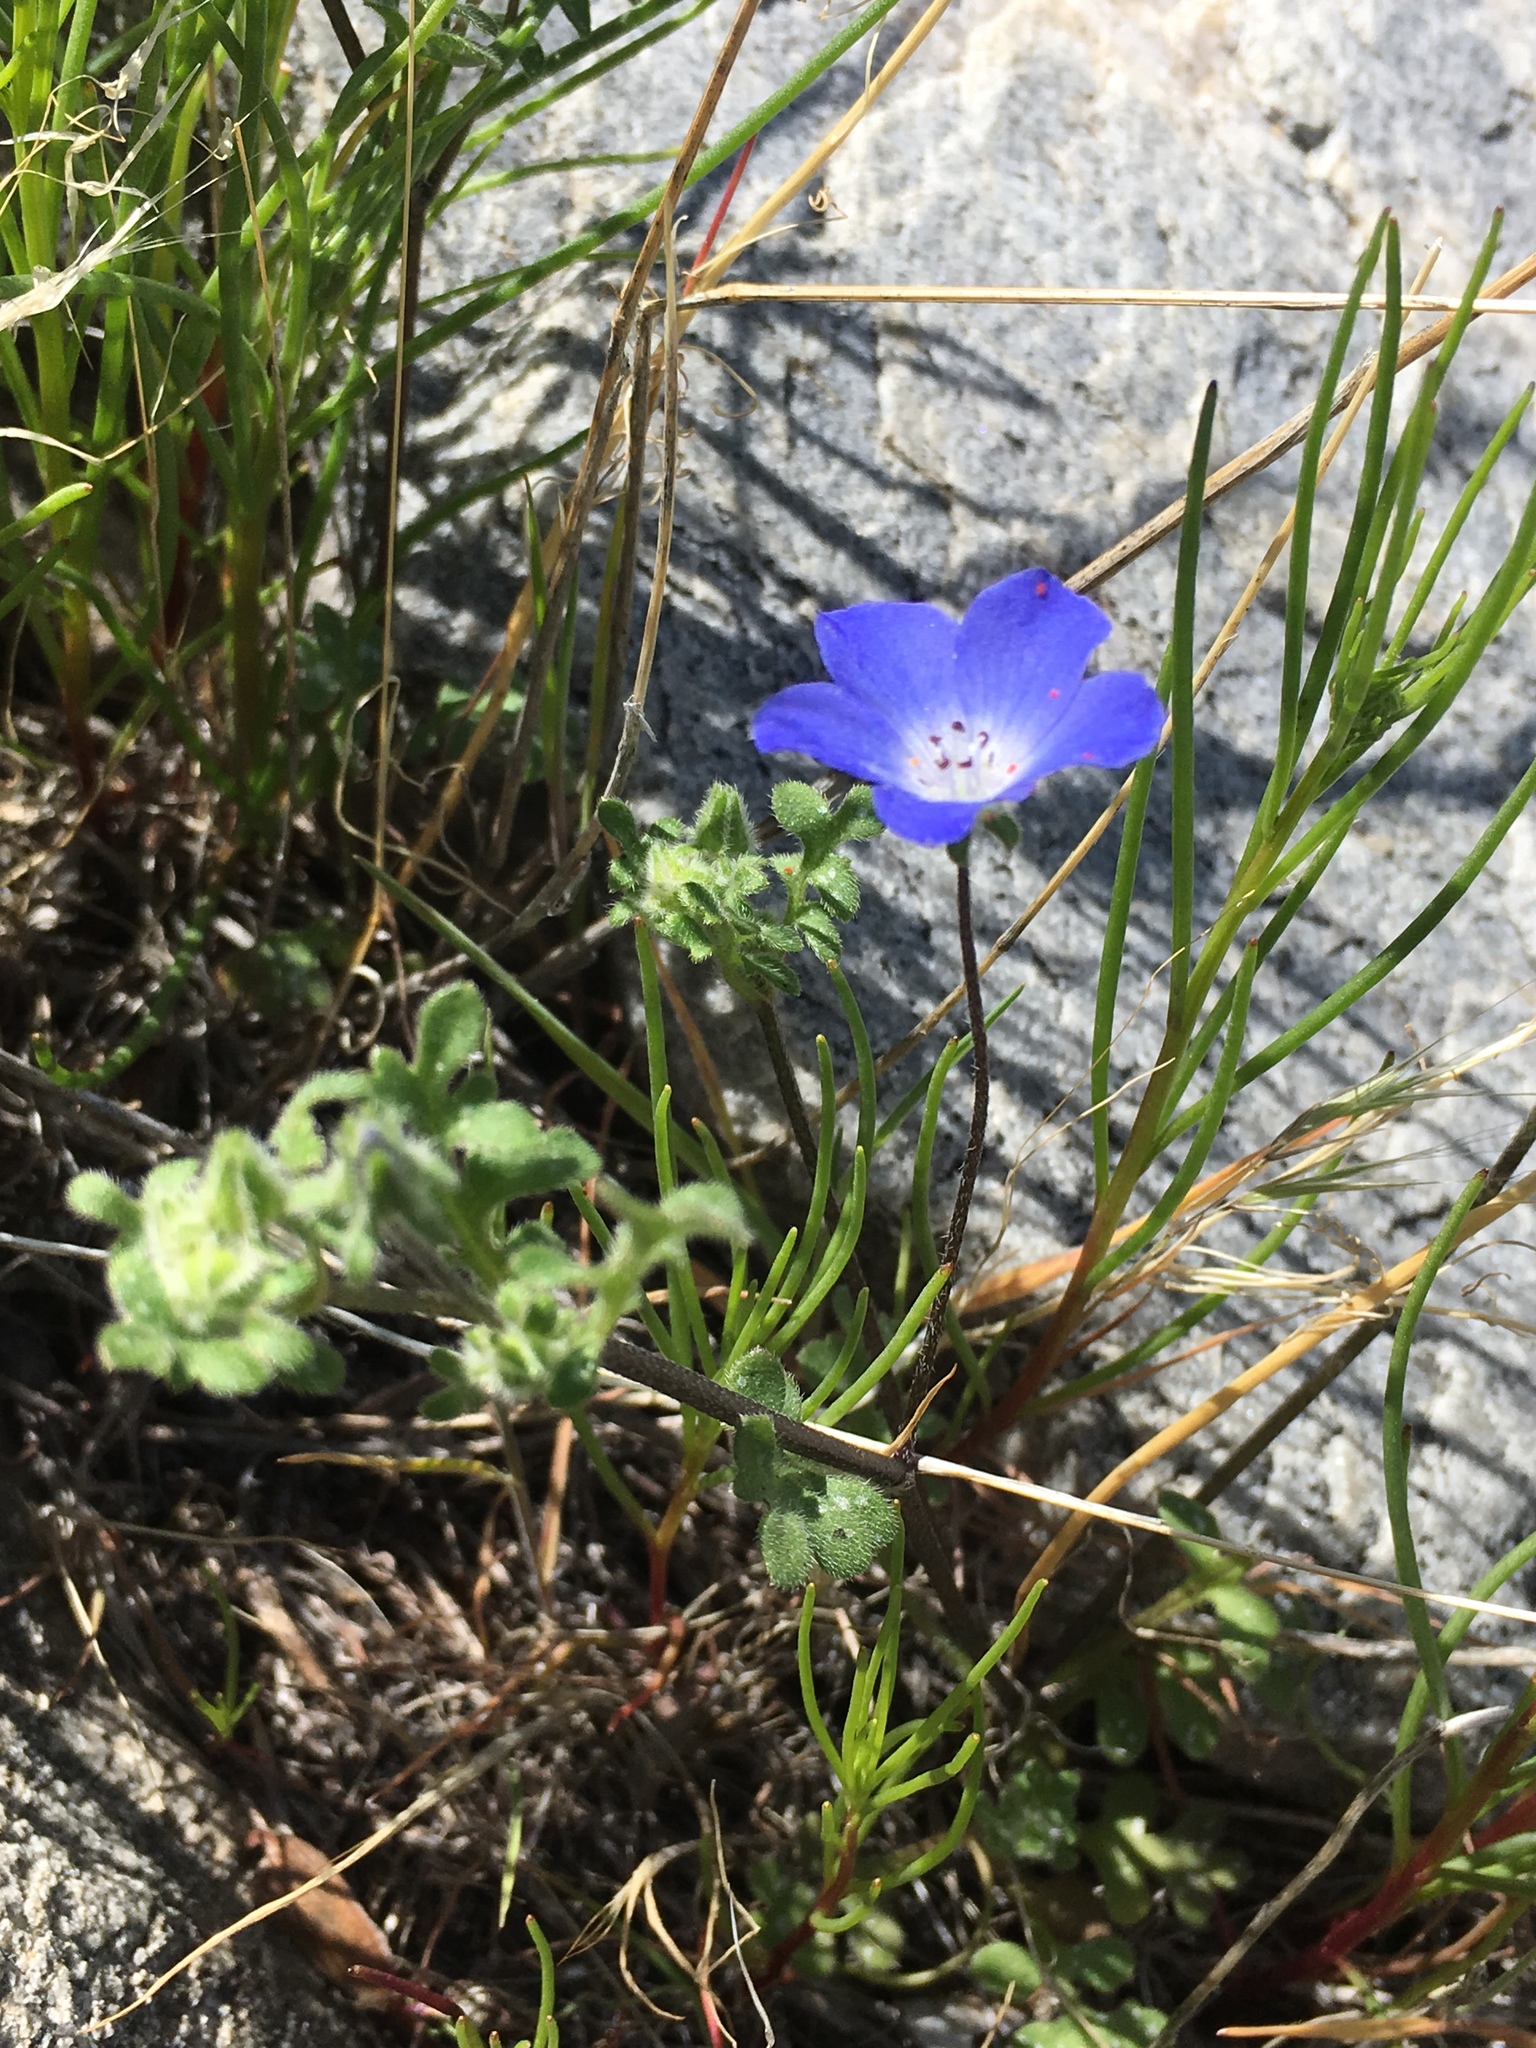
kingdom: Plantae
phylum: Tracheophyta
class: Magnoliopsida
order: Boraginales
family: Hydrophyllaceae
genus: Nemophila
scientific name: Nemophila menziesii
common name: Baby's-blue-eyes
